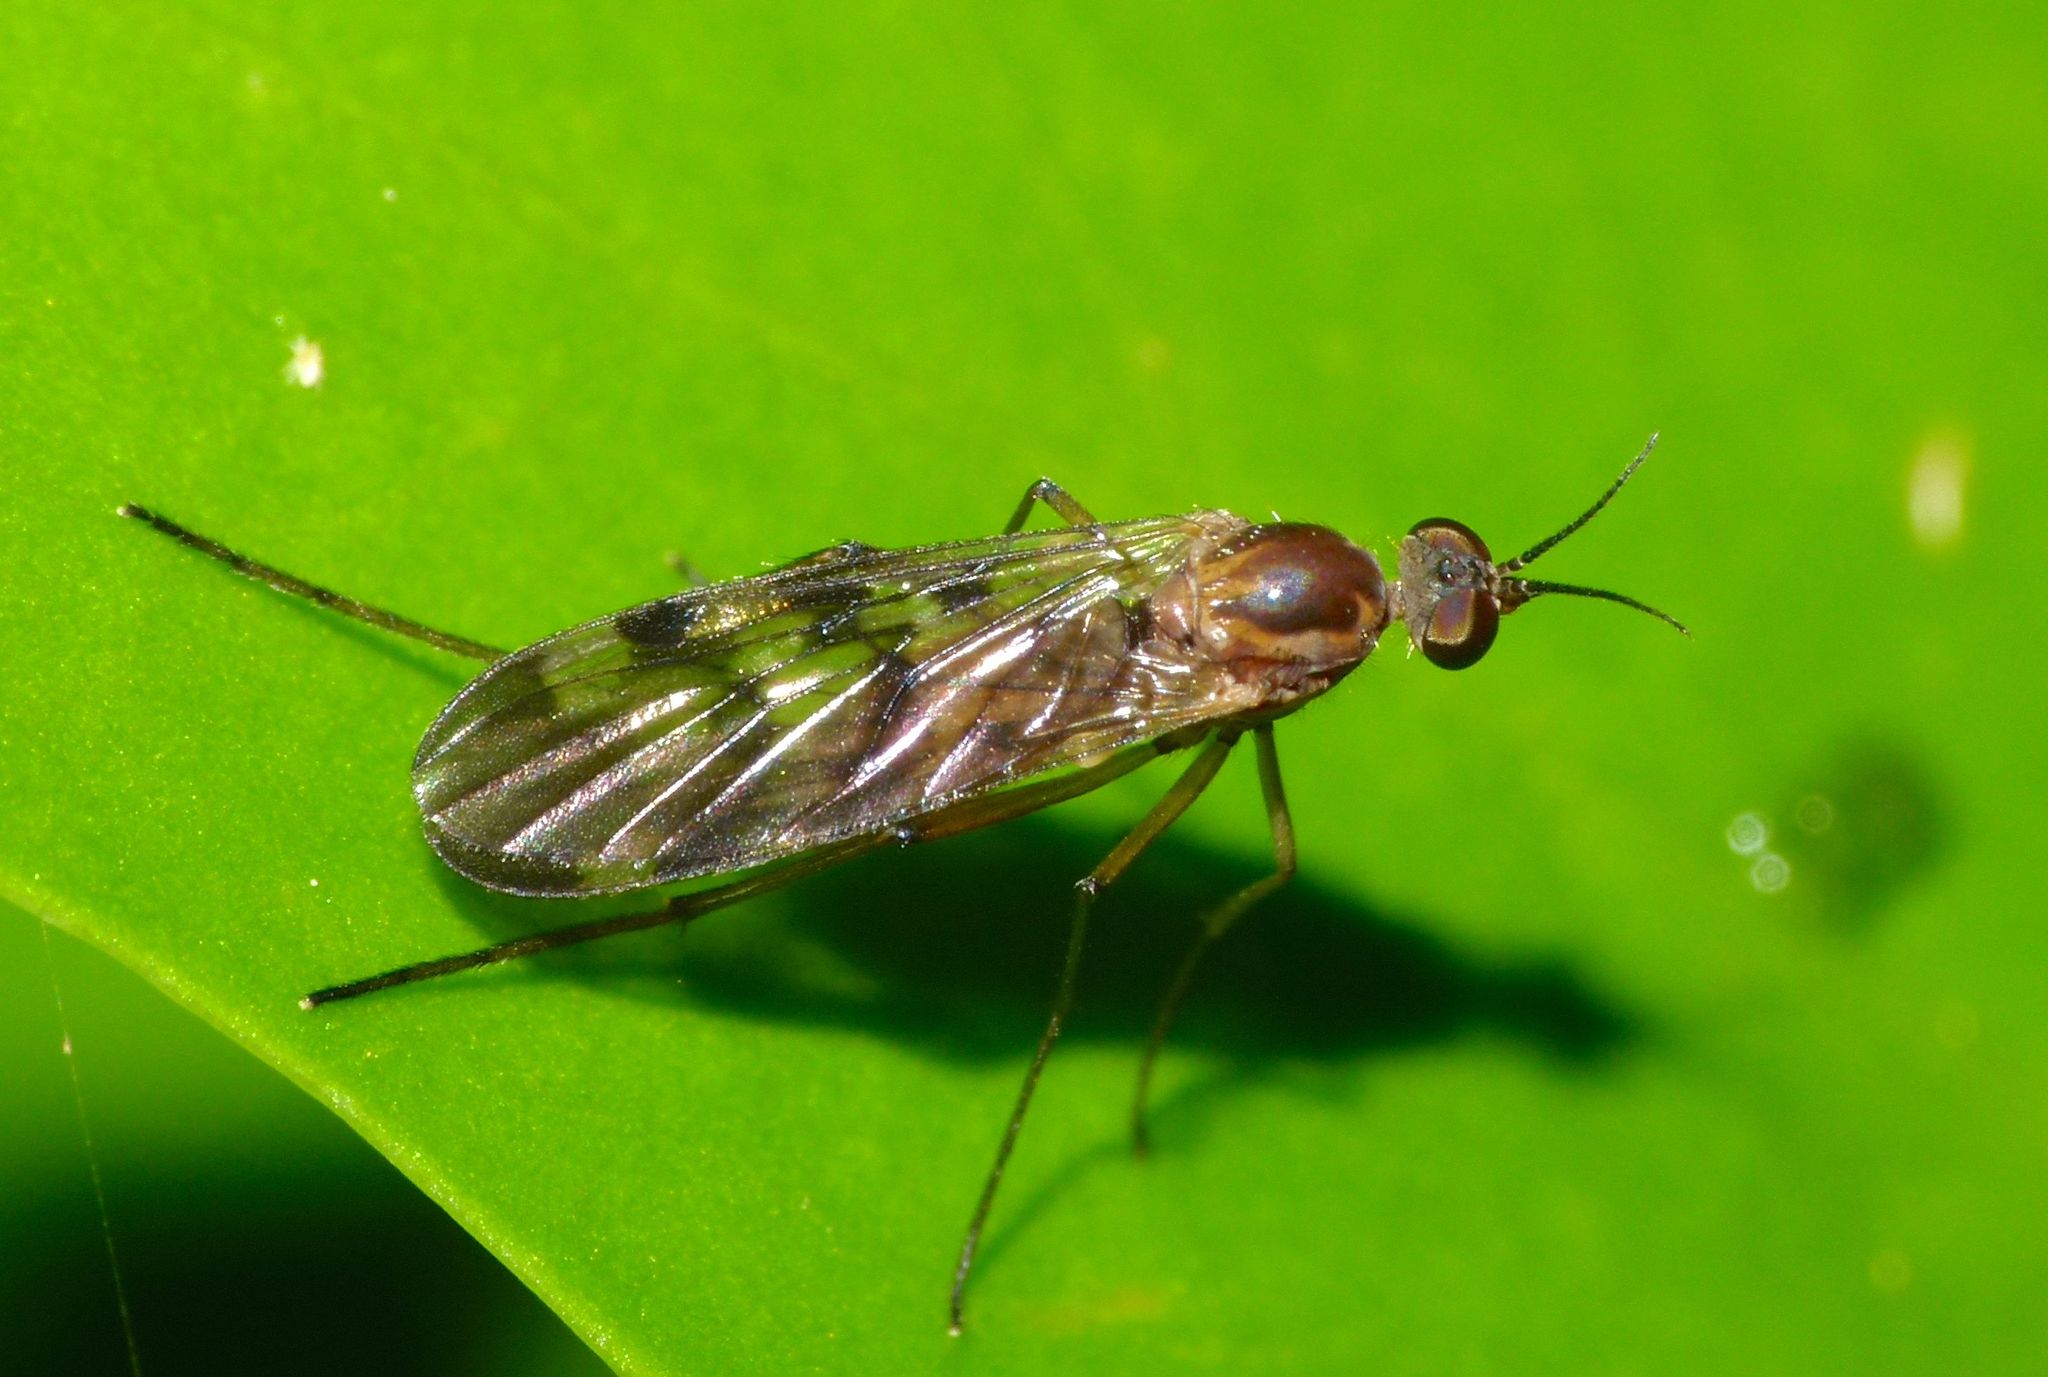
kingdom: Animalia
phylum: Arthropoda
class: Insecta
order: Diptera
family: Anisopodidae
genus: Sylvicola
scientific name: Sylvicola undulatus
